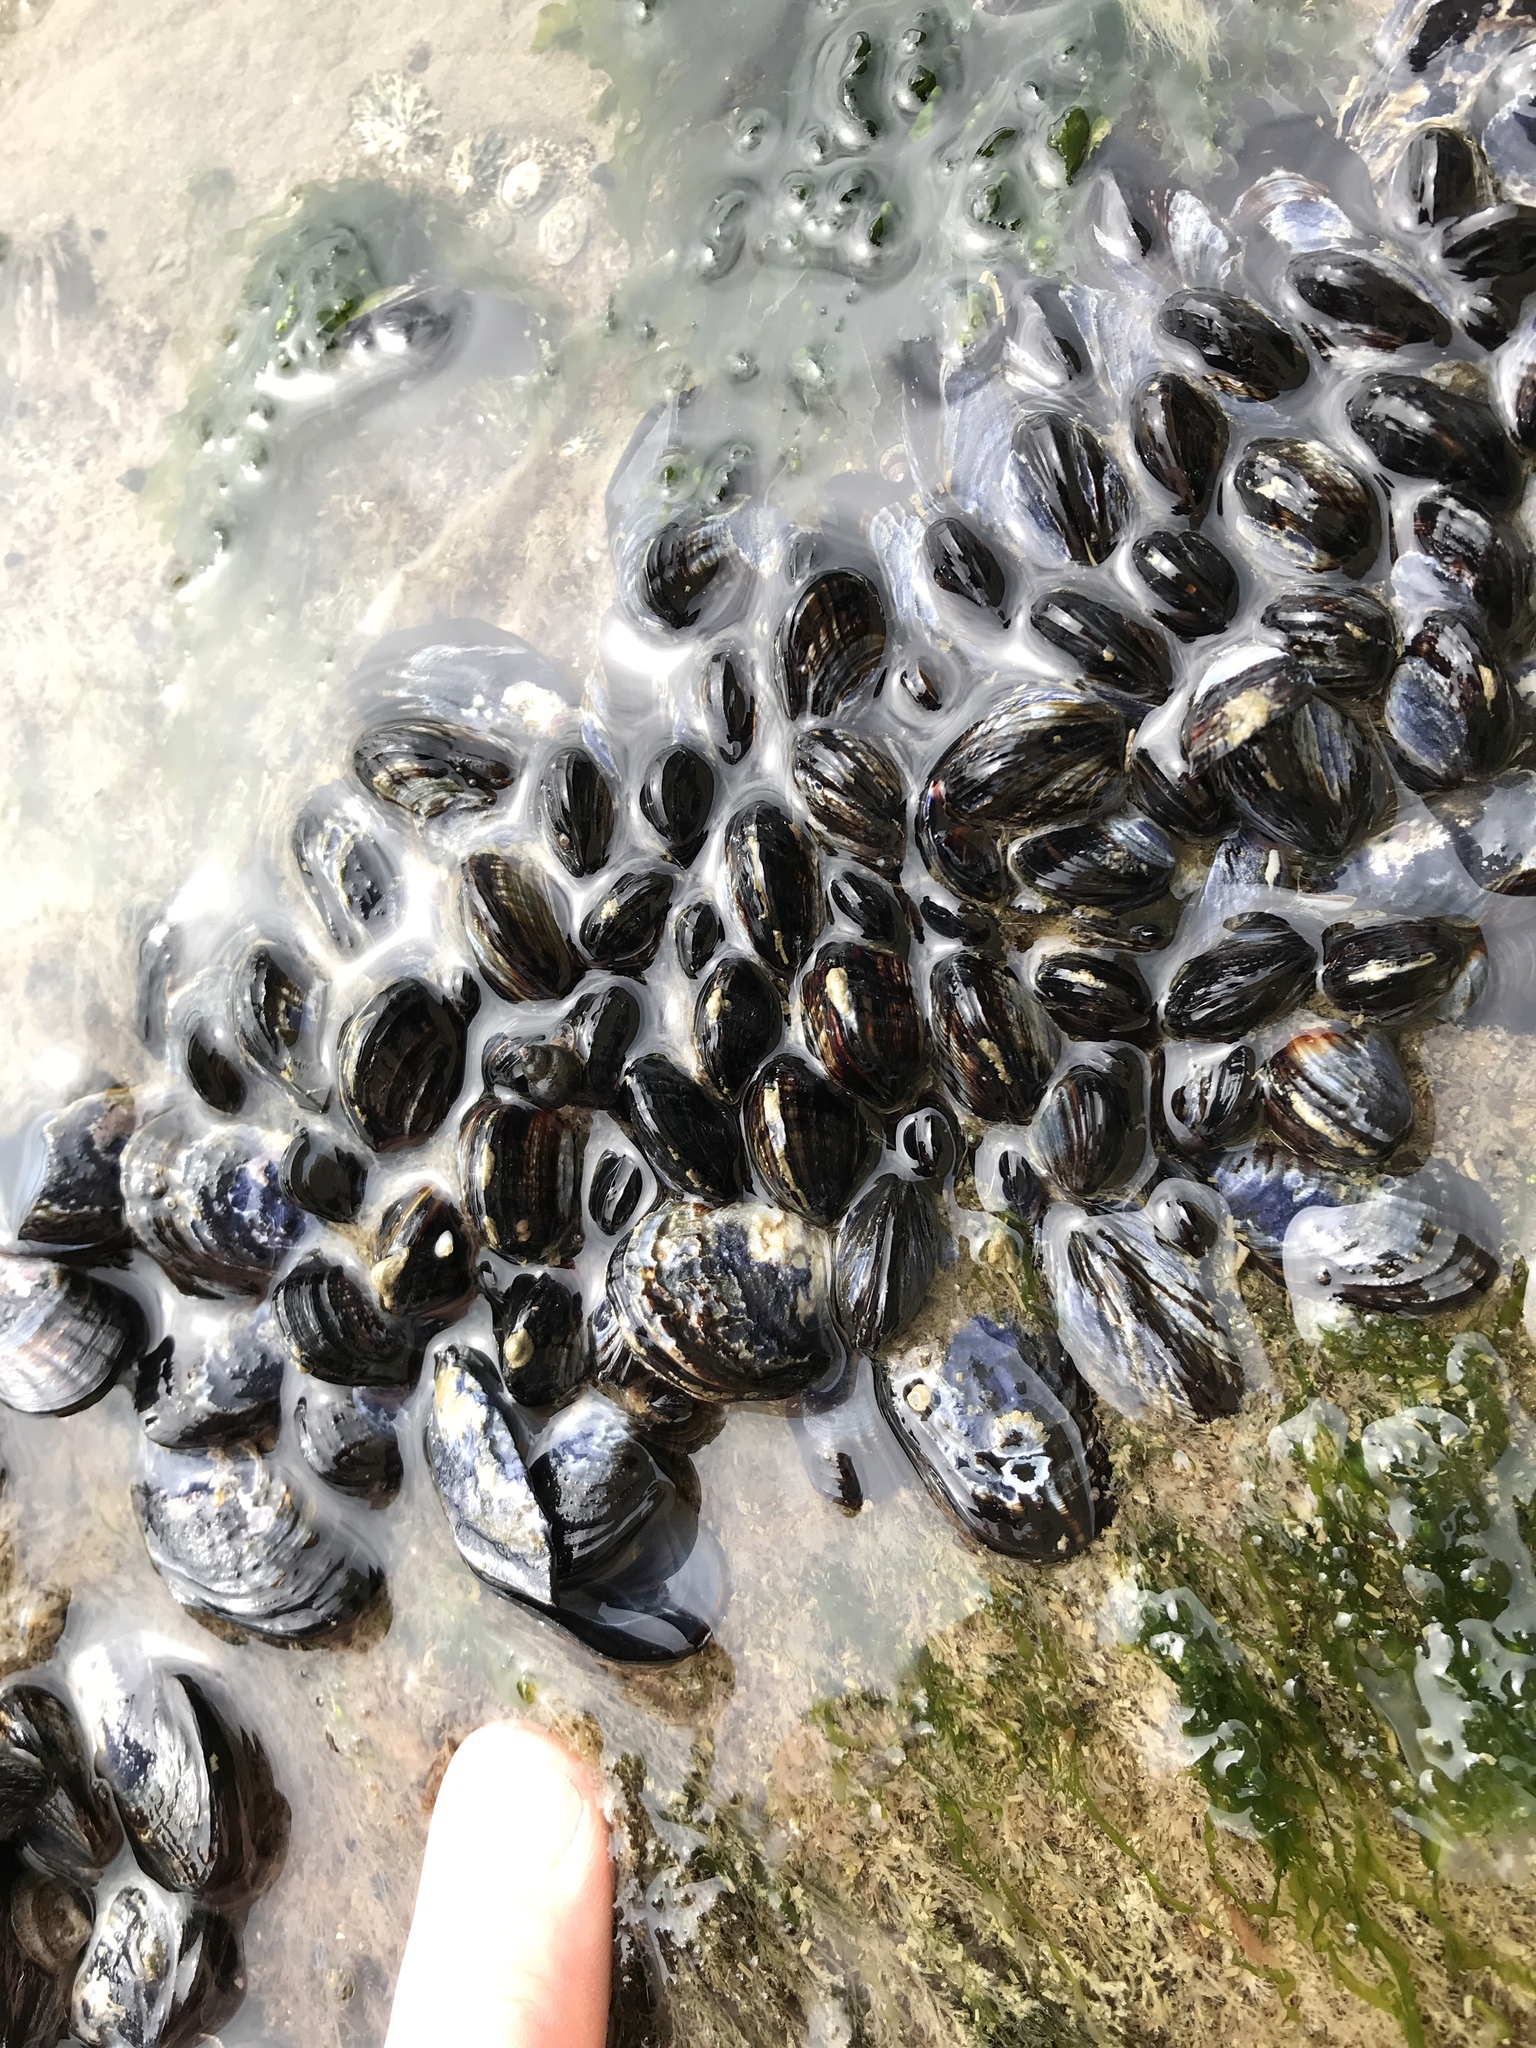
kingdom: Animalia
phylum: Mollusca
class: Bivalvia
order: Mytilida
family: Mytilidae
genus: Mytilus
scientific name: Mytilus californianus
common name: California mussel
